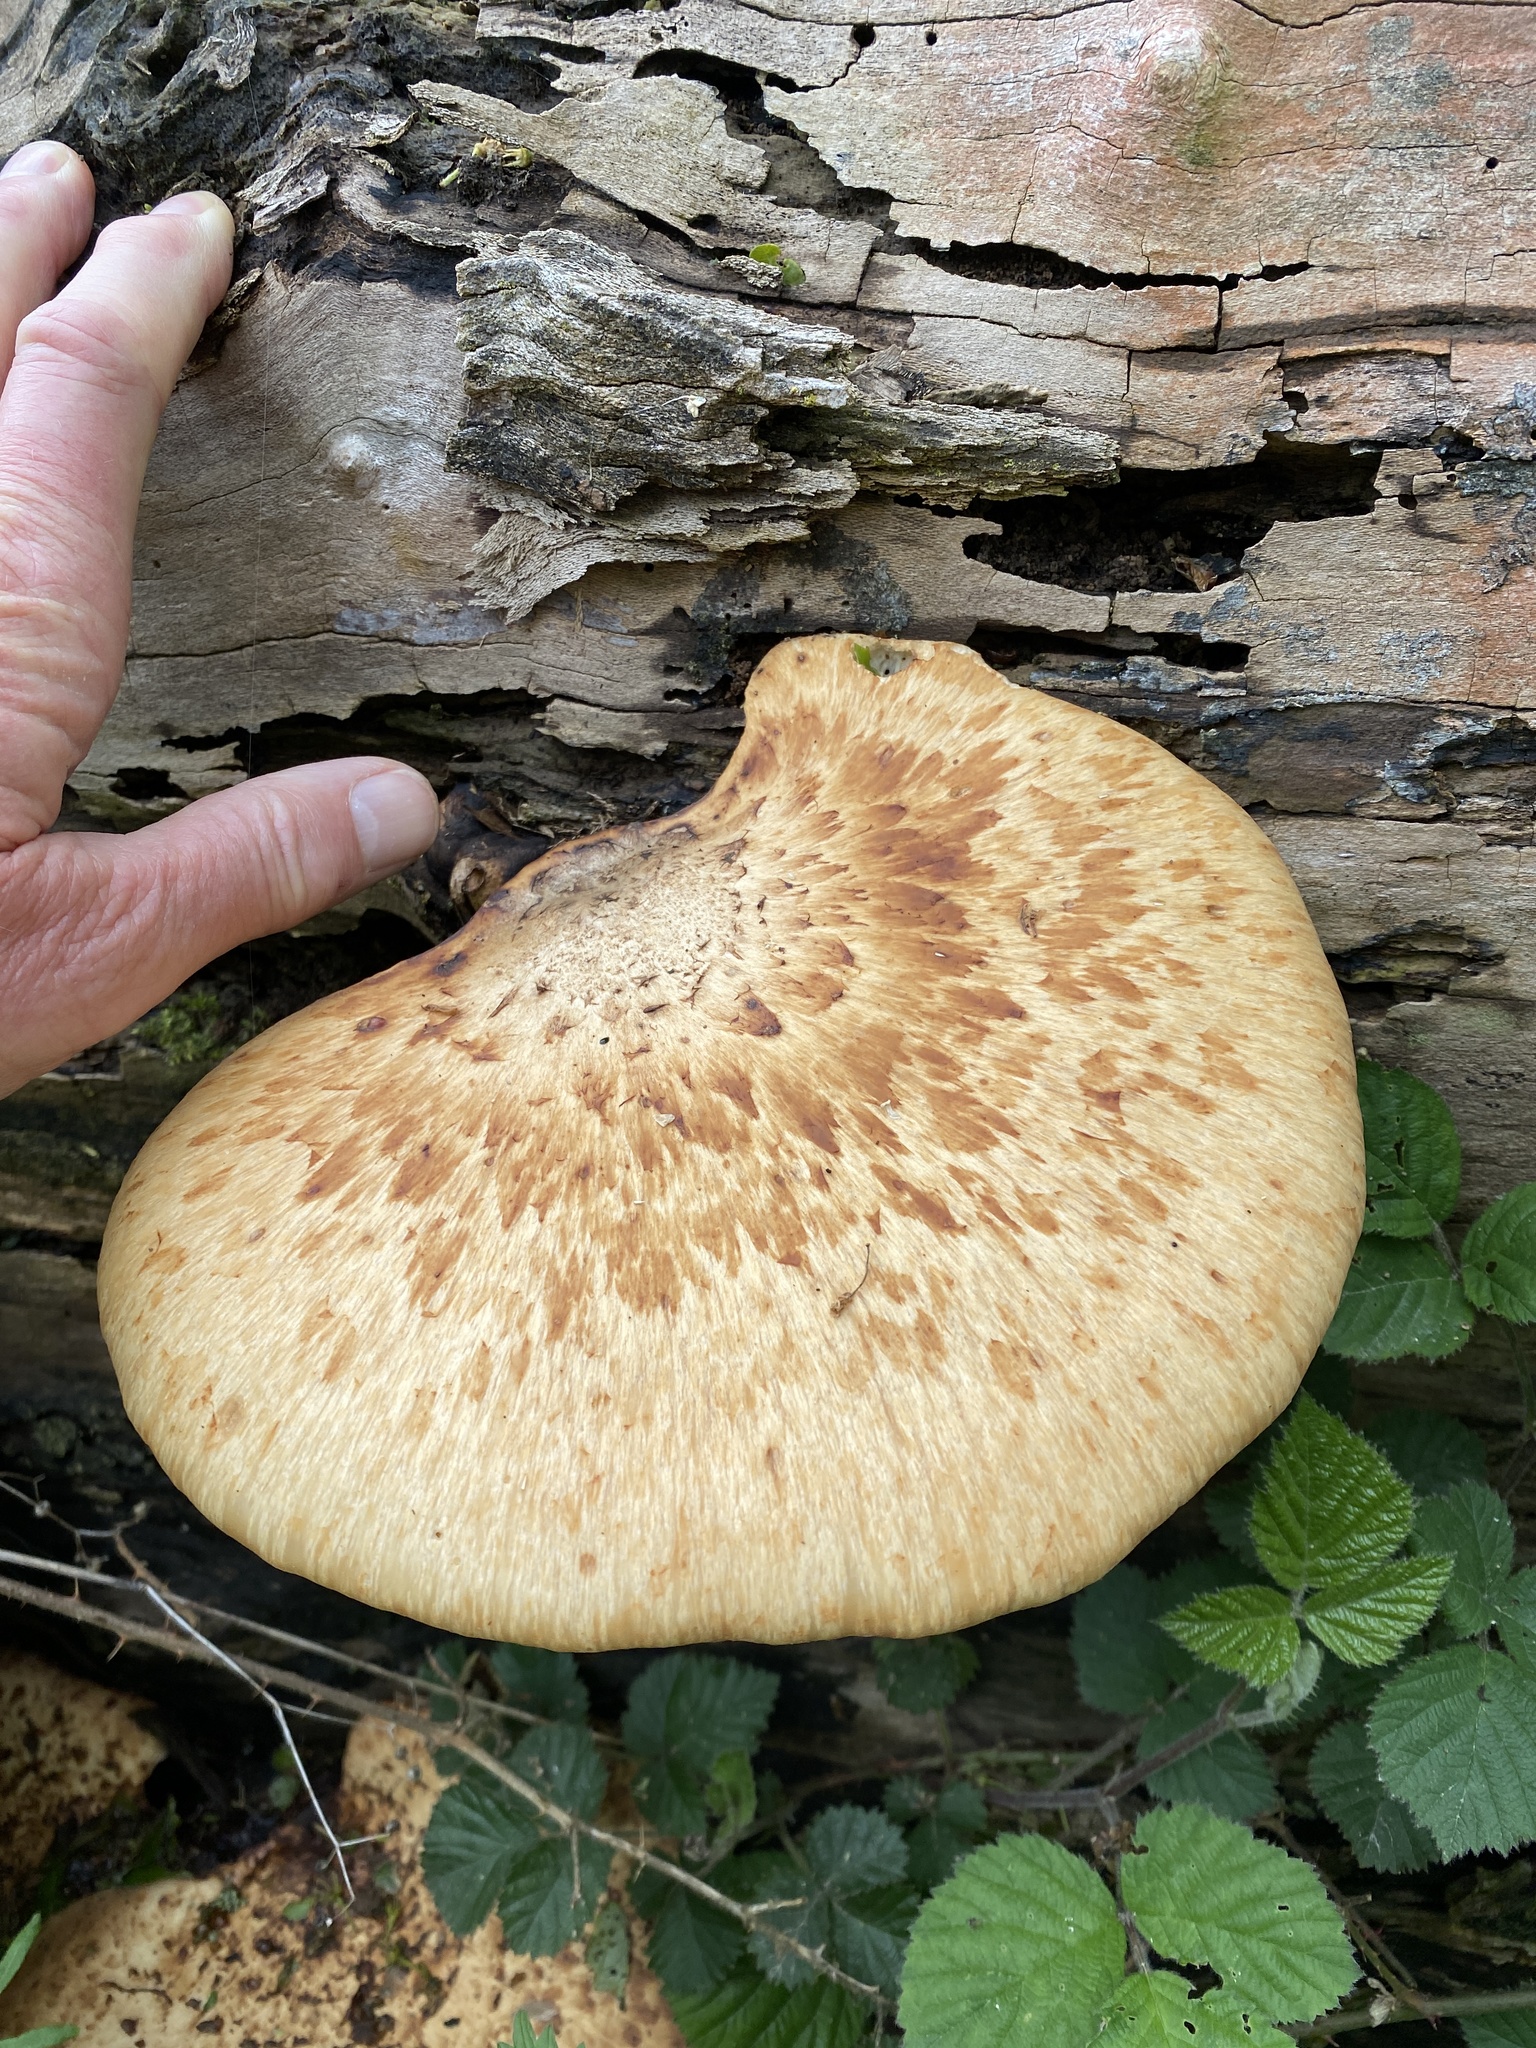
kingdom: Fungi
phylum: Basidiomycota
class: Agaricomycetes
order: Polyporales
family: Polyporaceae
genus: Cerioporus
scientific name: Cerioporus squamosus
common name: Dryad's saddle
